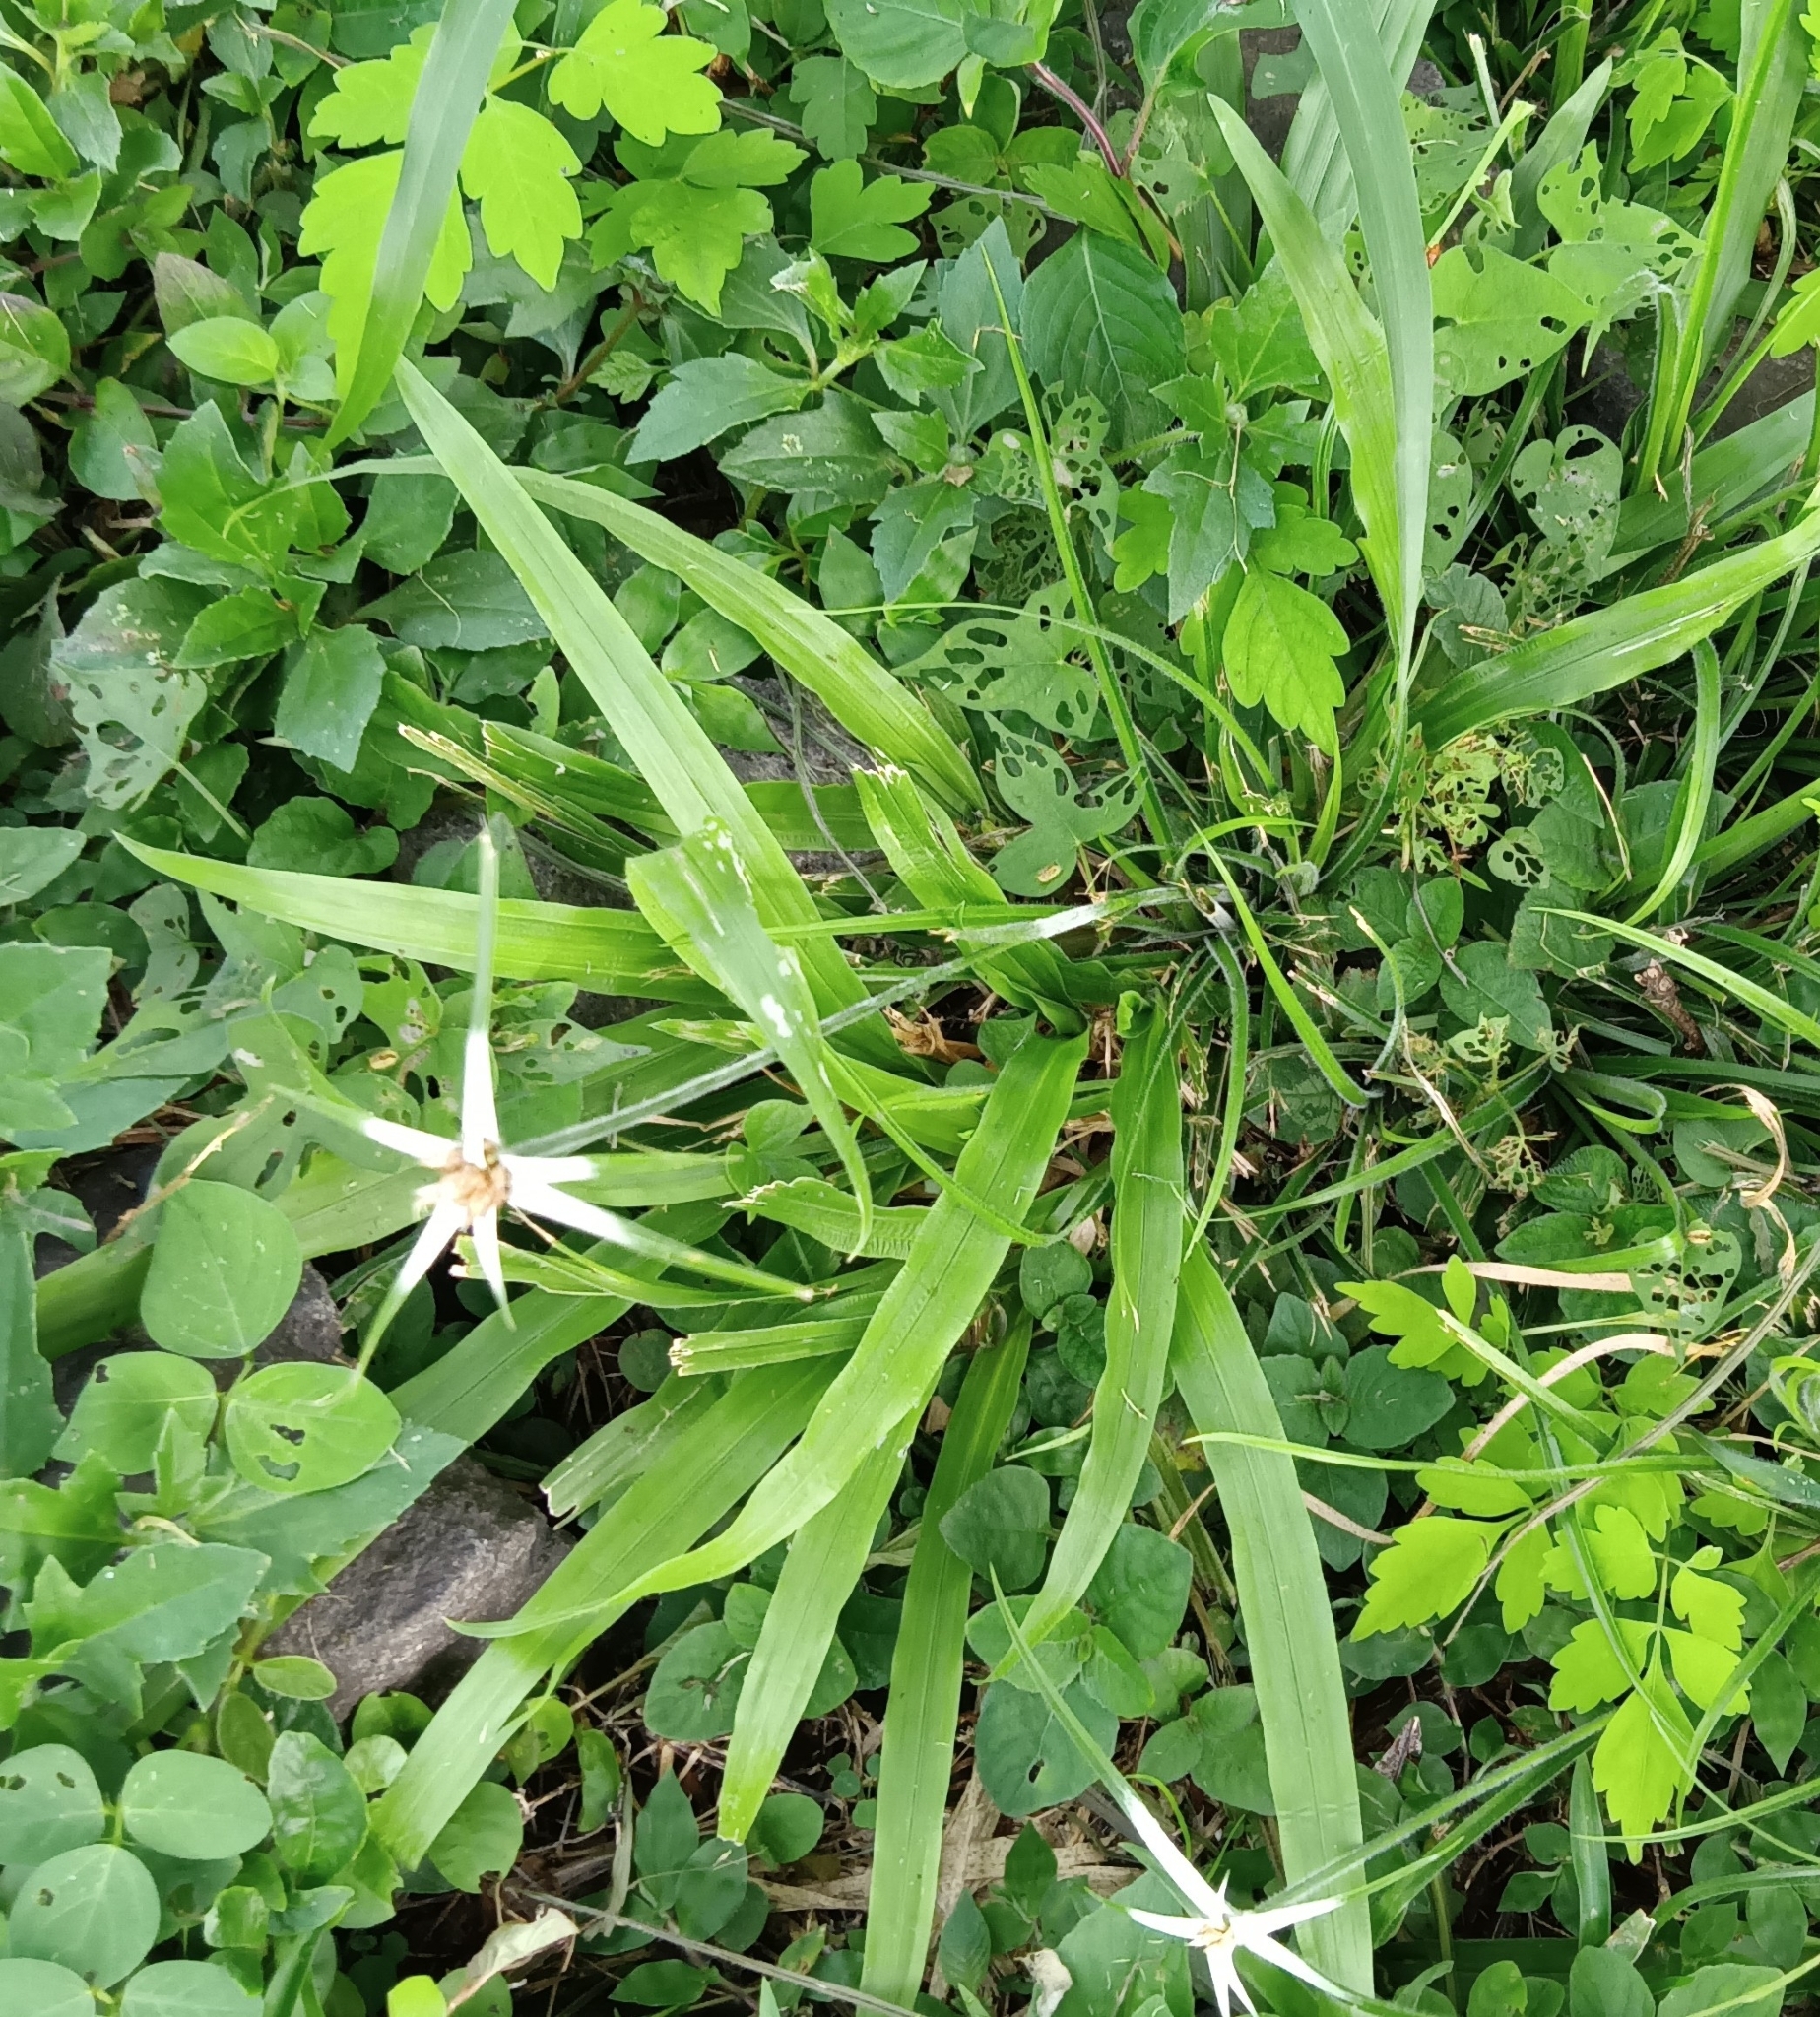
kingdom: Plantae
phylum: Tracheophyta
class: Liliopsida
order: Poales
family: Cyperaceae
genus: Rhynchospora
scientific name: Rhynchospora nervosa
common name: Star sedge
